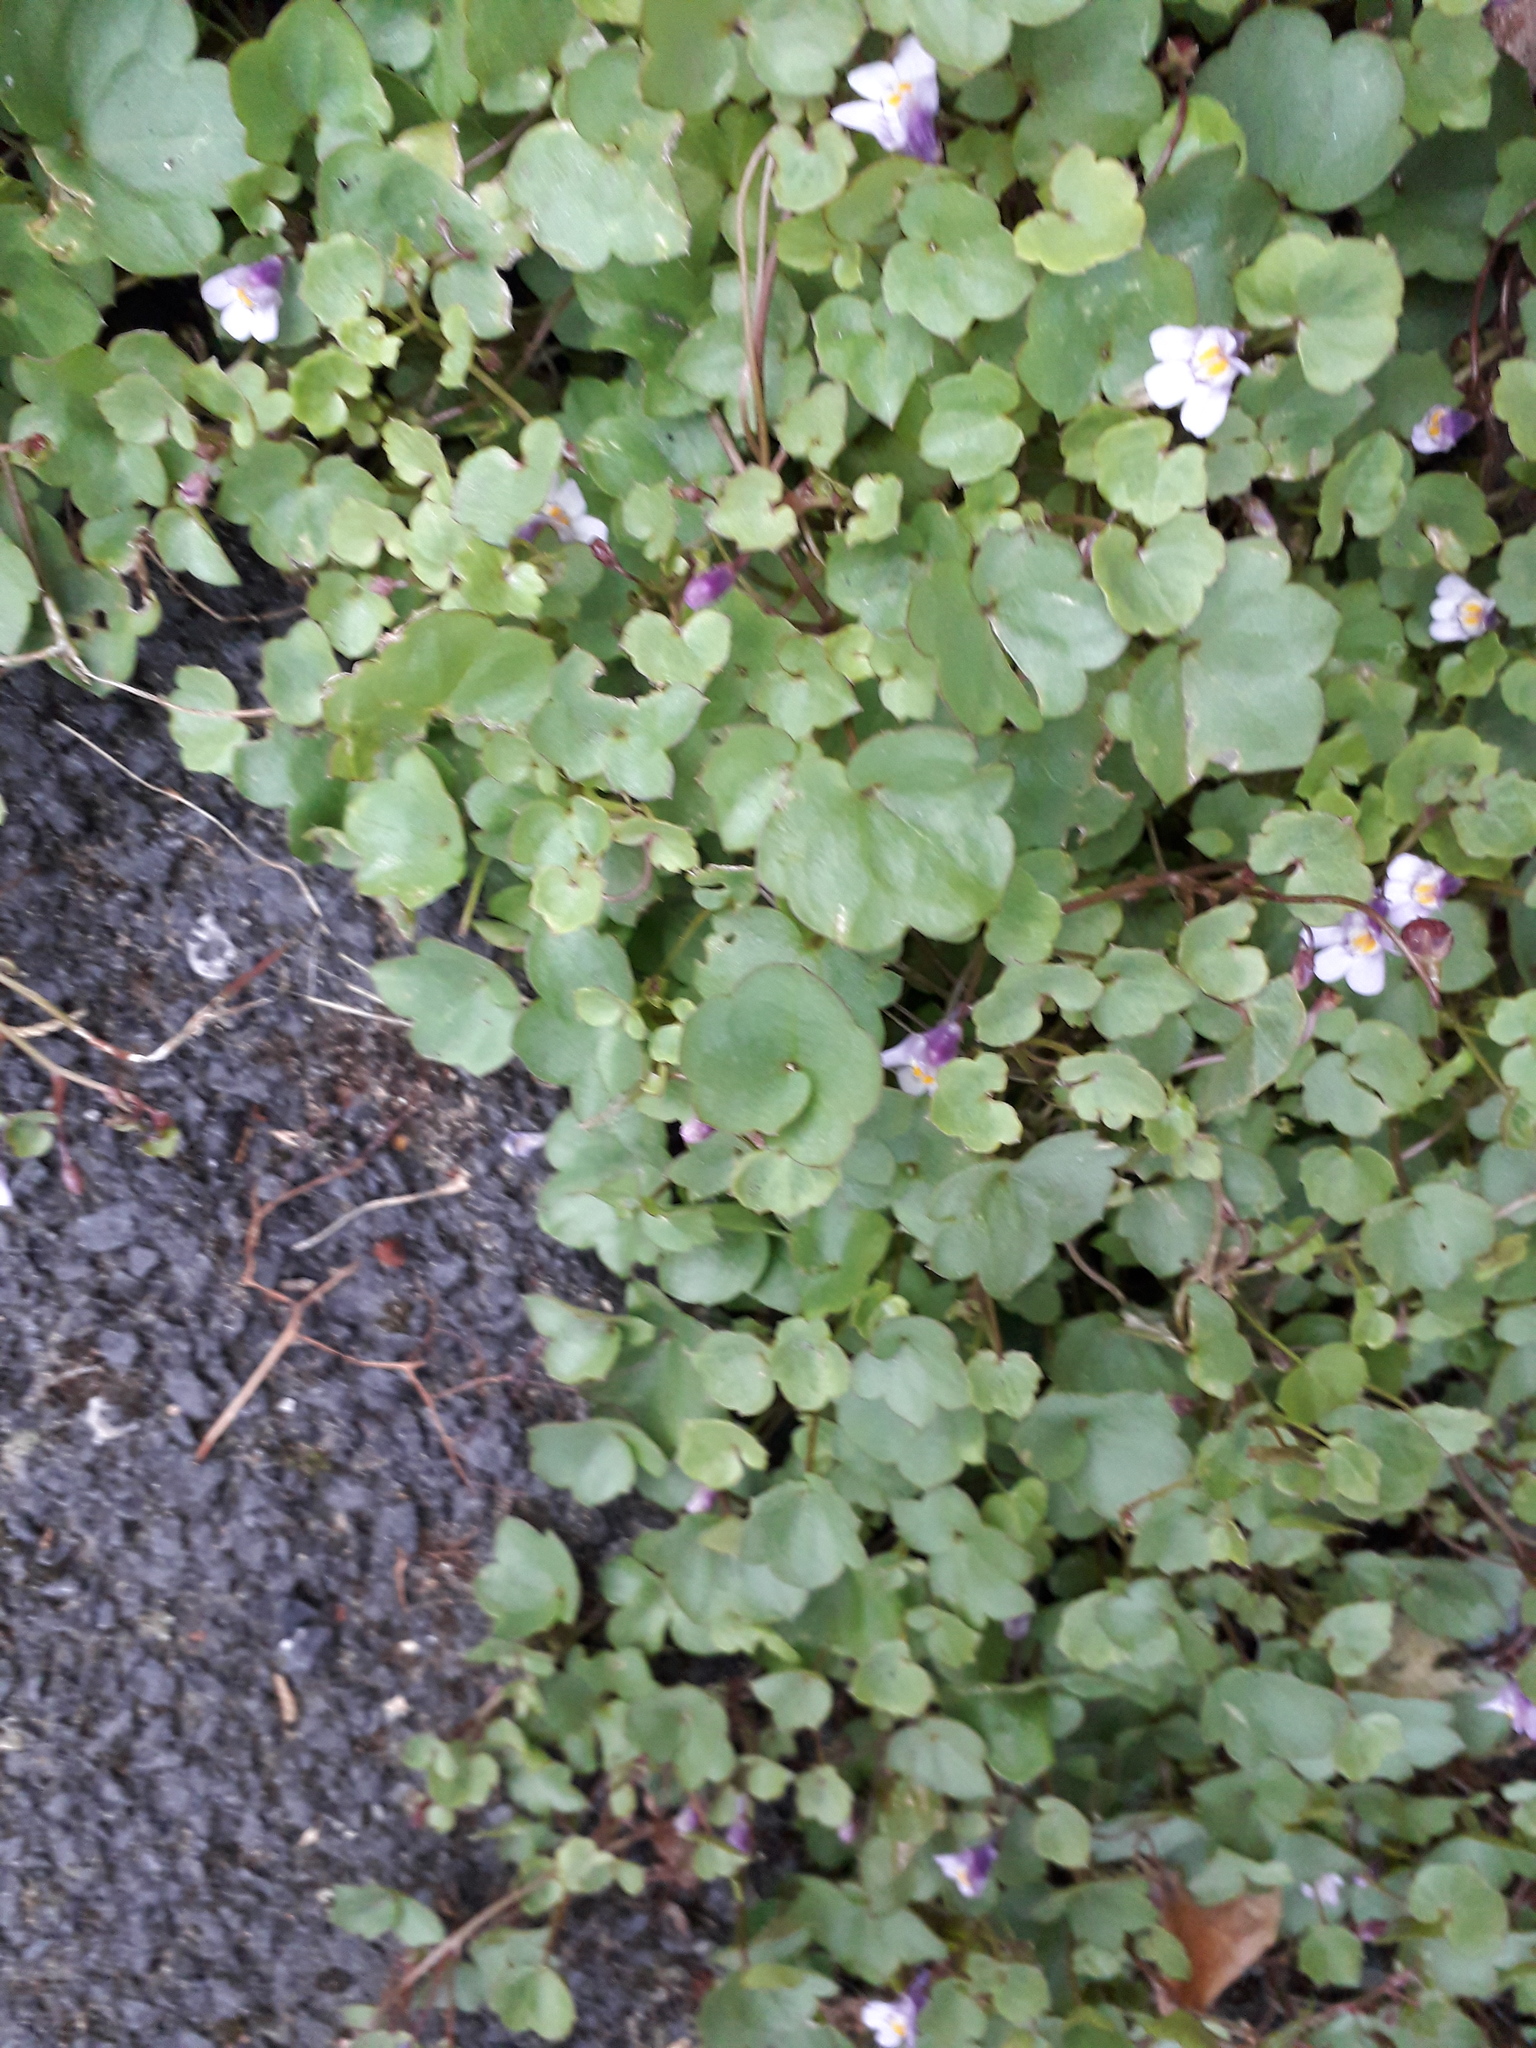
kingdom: Plantae
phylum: Tracheophyta
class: Magnoliopsida
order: Lamiales
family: Plantaginaceae
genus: Cymbalaria
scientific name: Cymbalaria muralis
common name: Ivy-leaved toadflax
